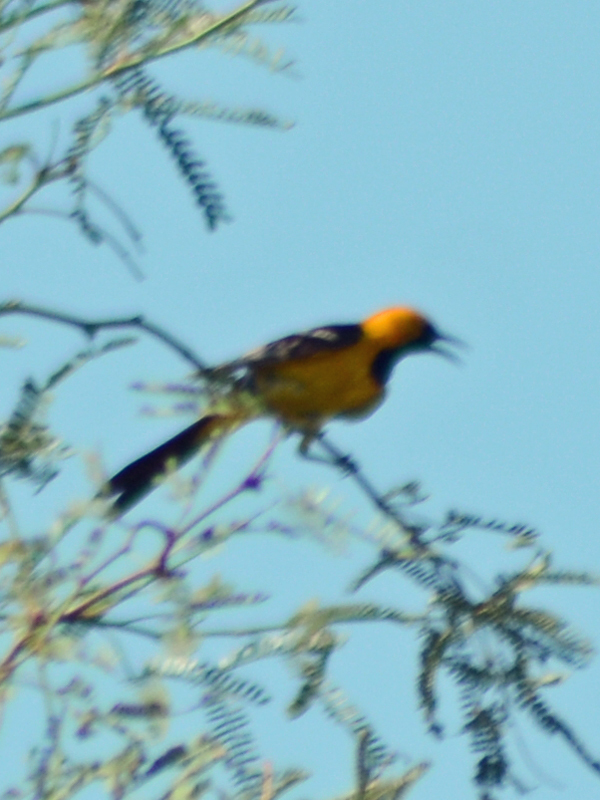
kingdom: Animalia
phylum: Chordata
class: Aves
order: Passeriformes
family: Icteridae
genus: Icterus
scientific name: Icterus cucullatus
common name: Hooded oriole
